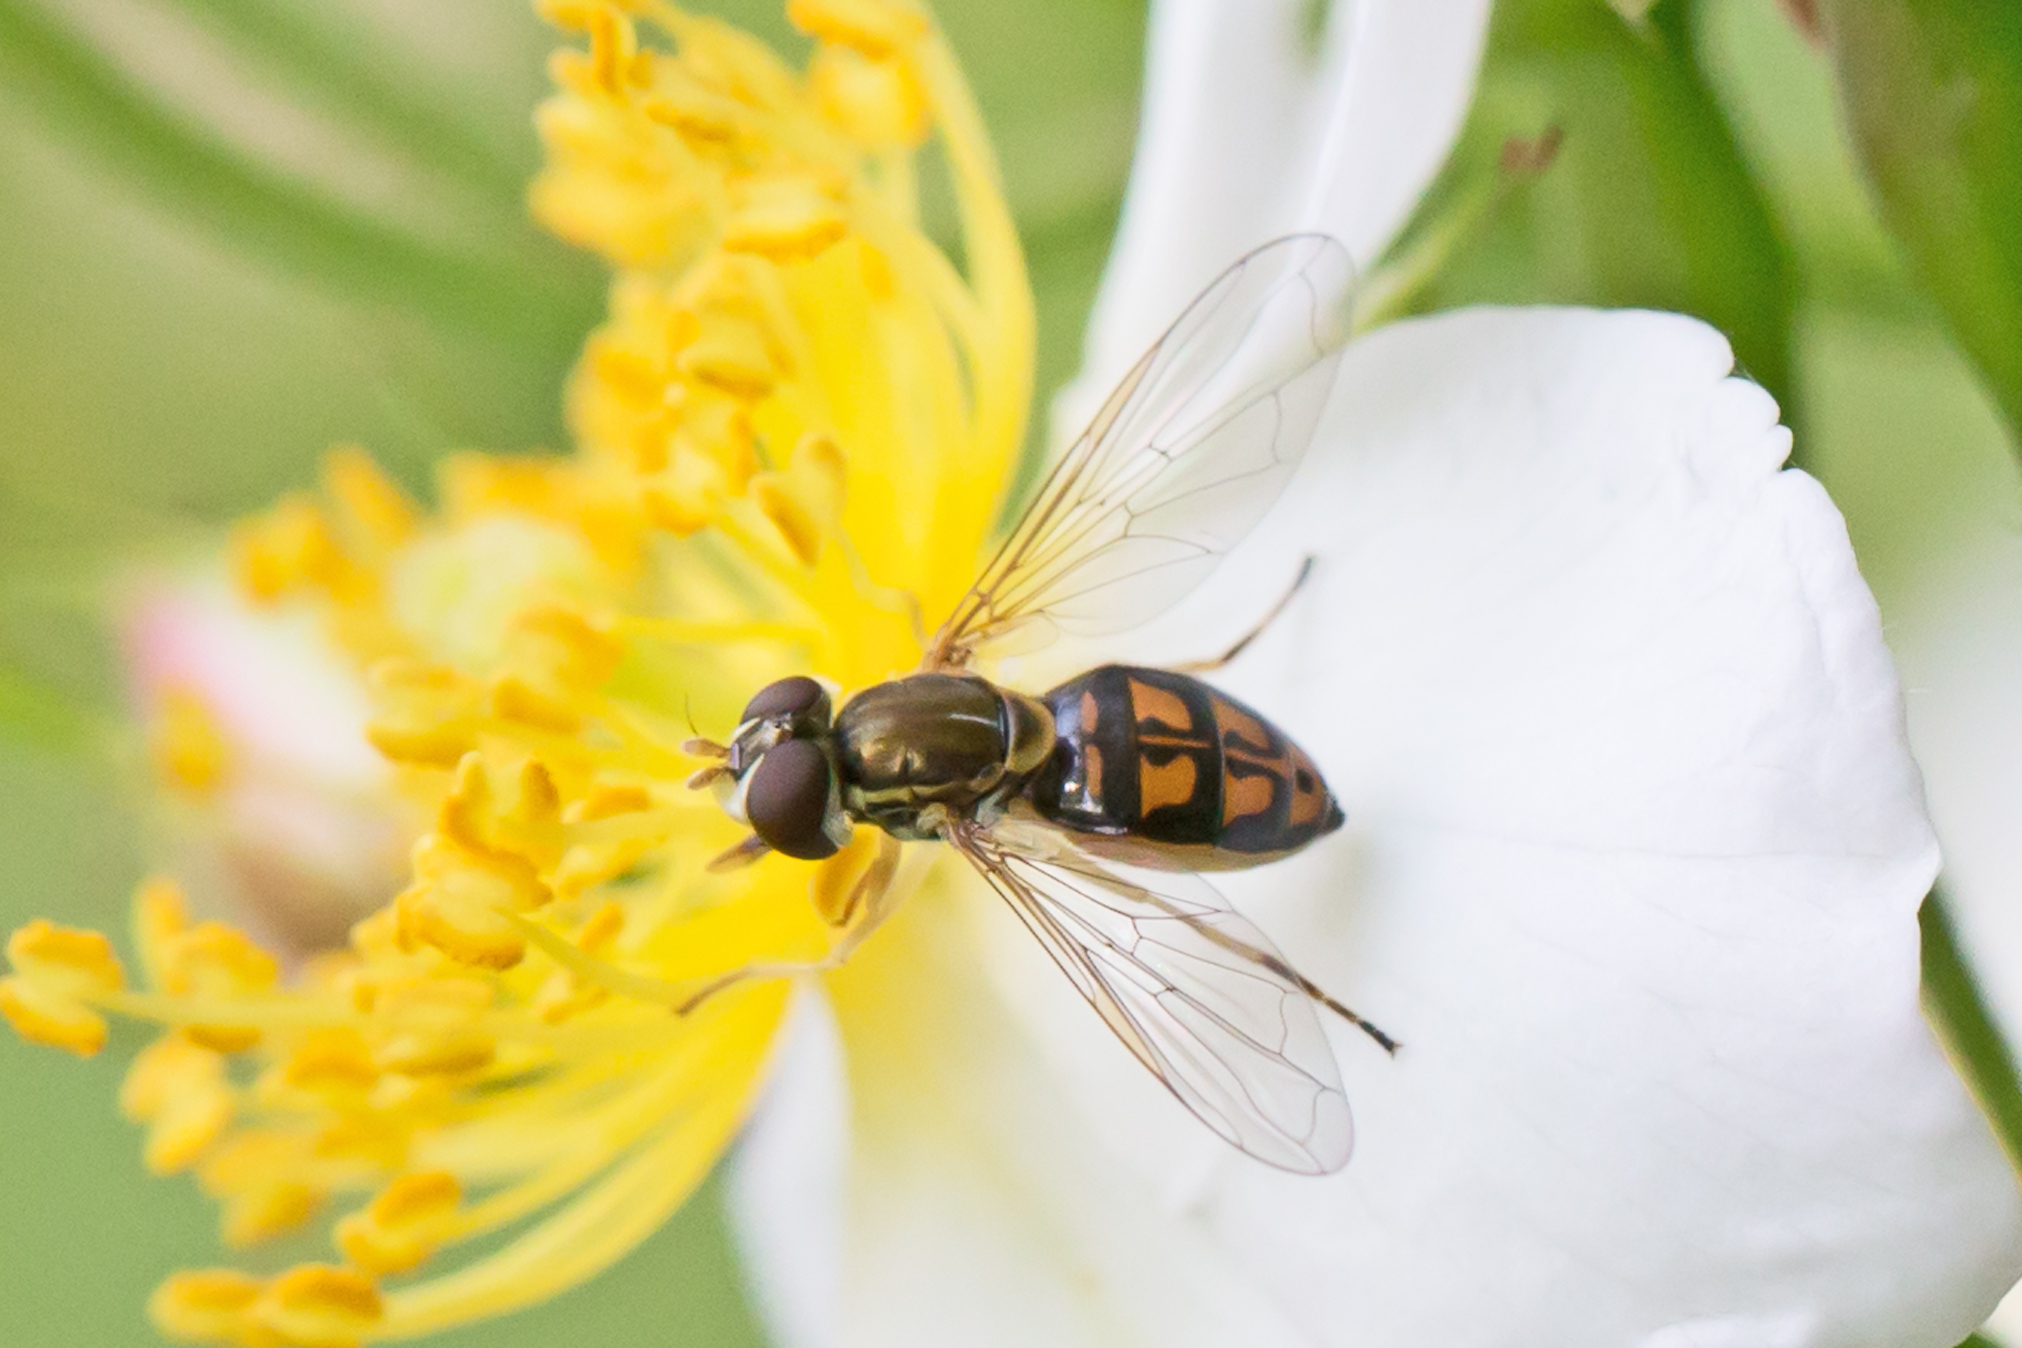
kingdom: Animalia
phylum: Arthropoda
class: Insecta
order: Diptera
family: Syrphidae
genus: Toxomerus
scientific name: Toxomerus marginatus
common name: Syrphid fly
